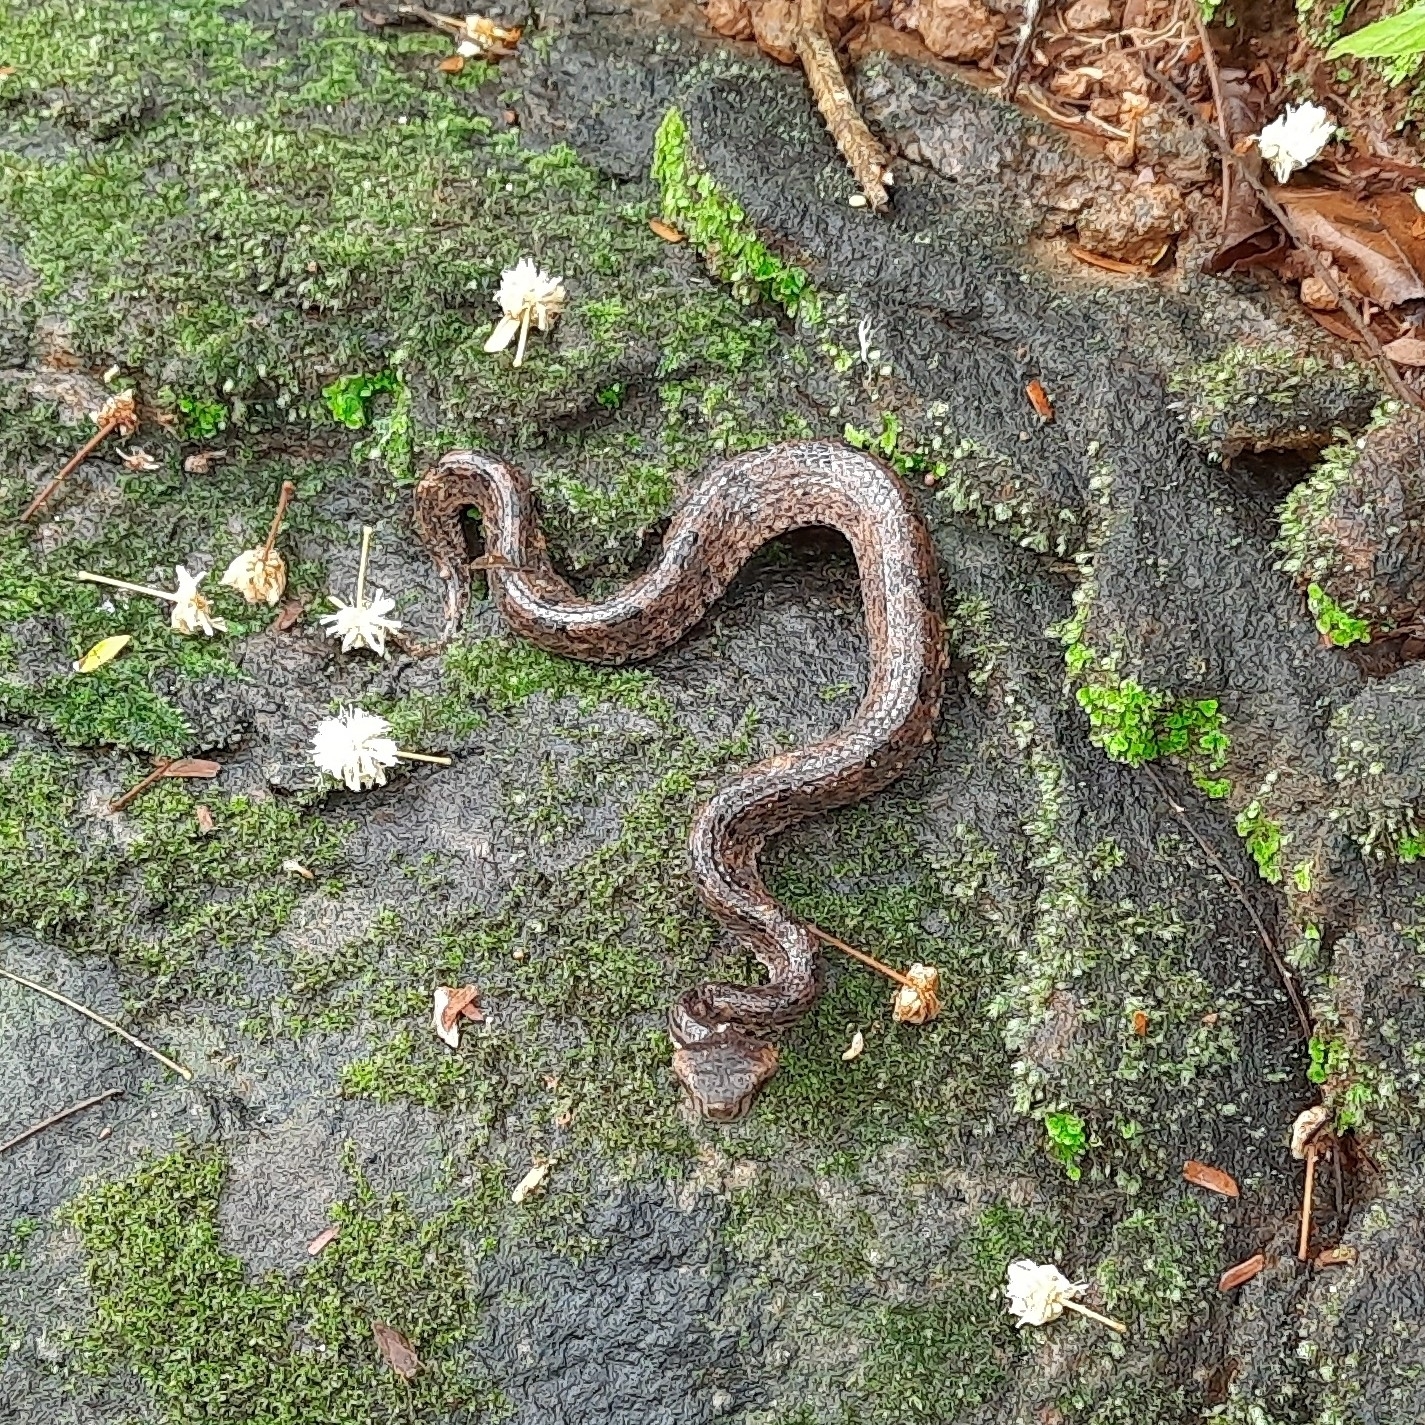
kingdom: Animalia
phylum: Chordata
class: Squamata
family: Viperidae
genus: Hypnale
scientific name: Hypnale hypnale
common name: Hump-nosed moccasin
